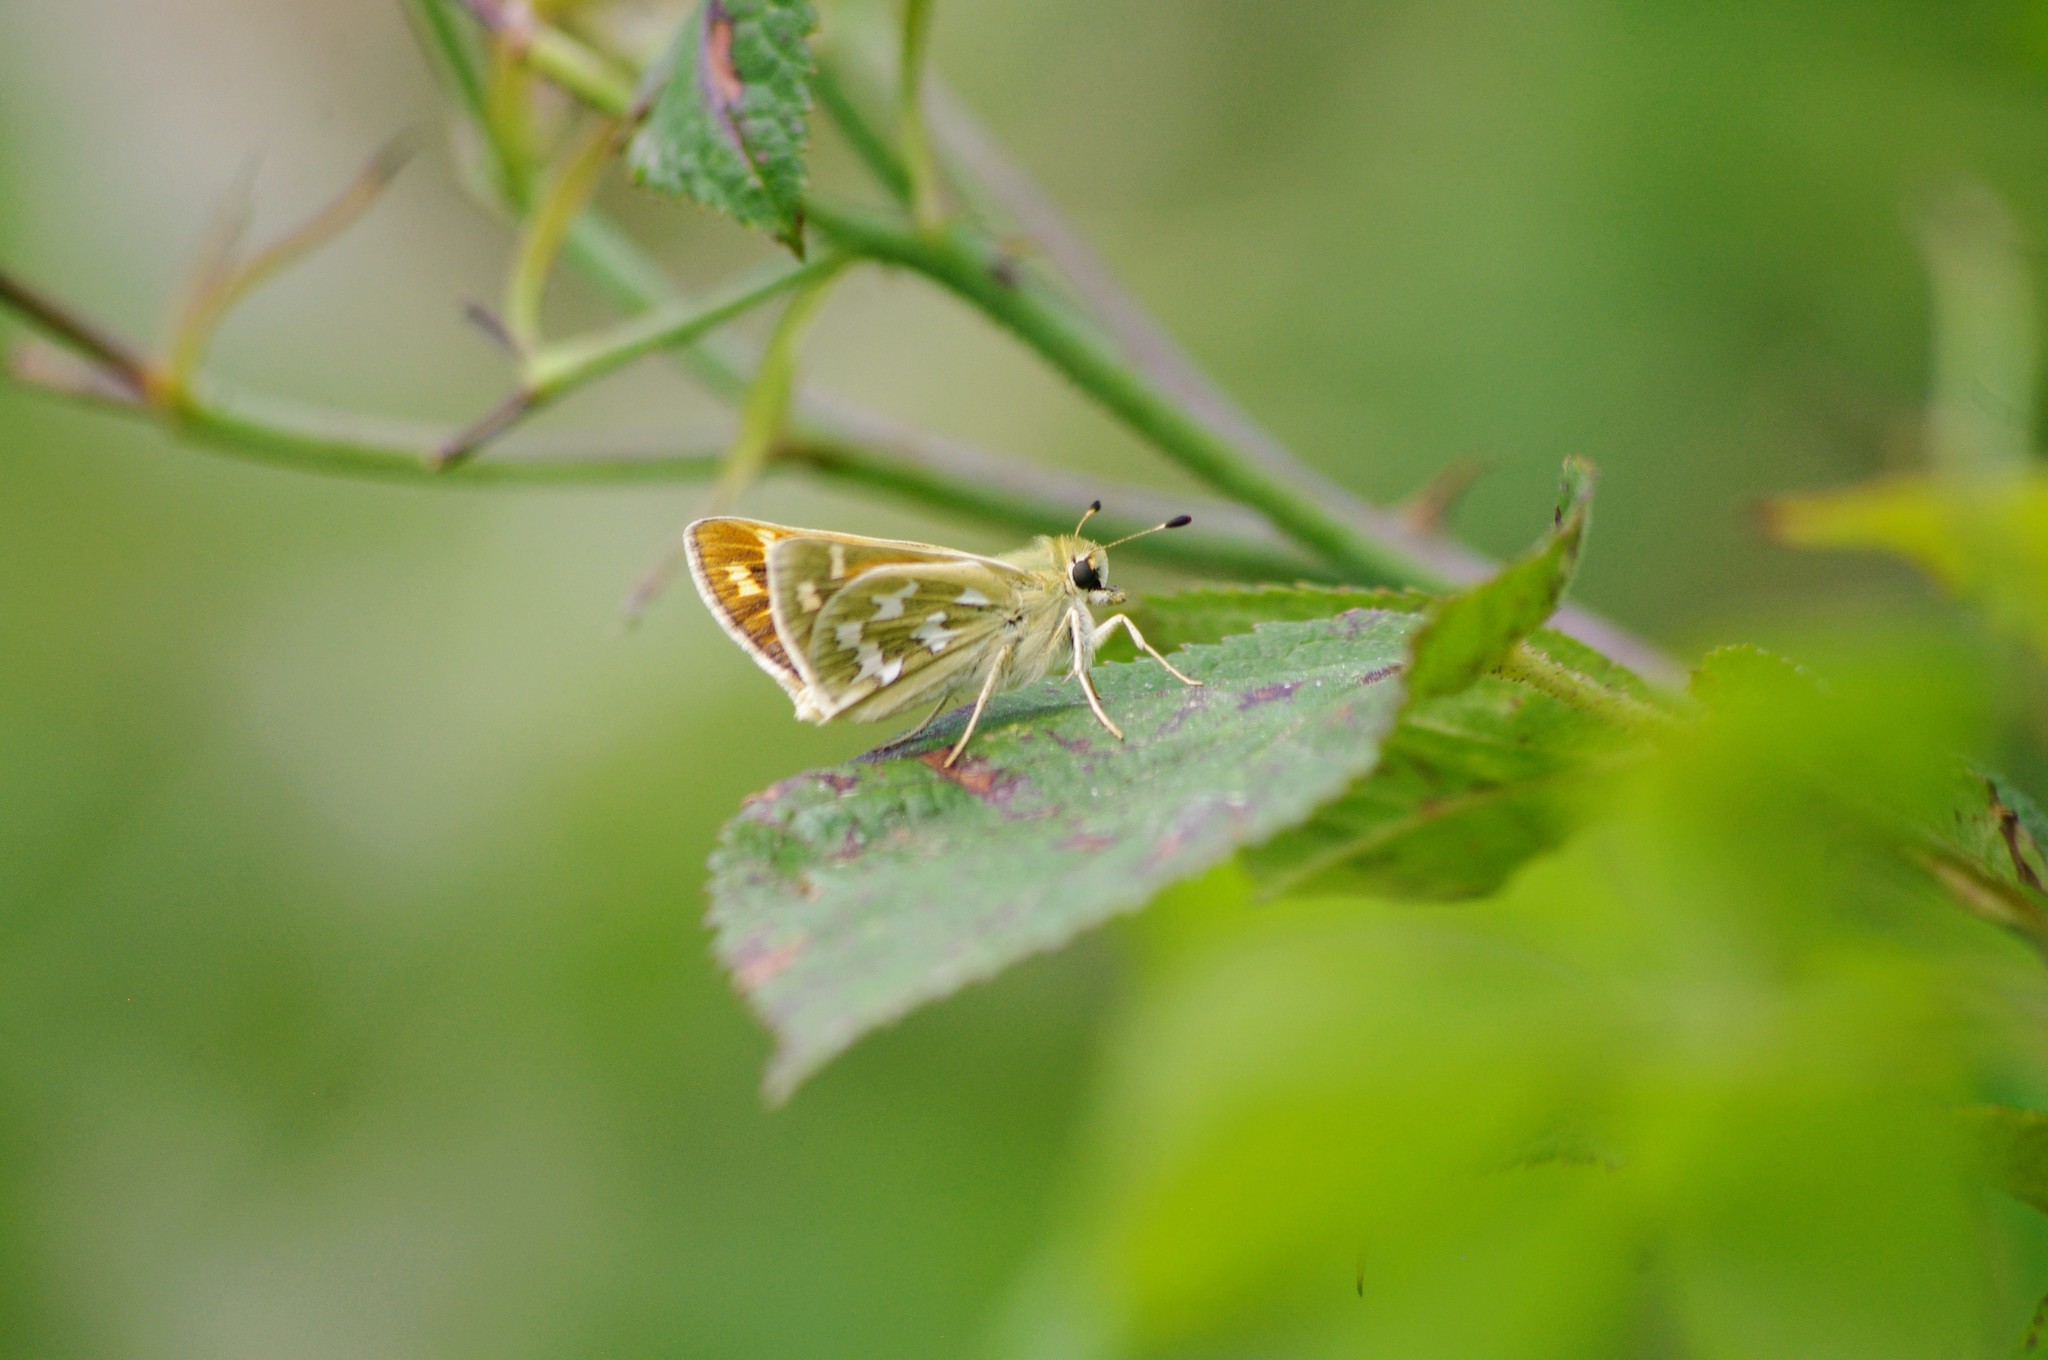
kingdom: Animalia
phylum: Arthropoda
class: Insecta
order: Lepidoptera
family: Hesperiidae
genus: Hesperia
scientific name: Hesperia juba
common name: Juba skipper
